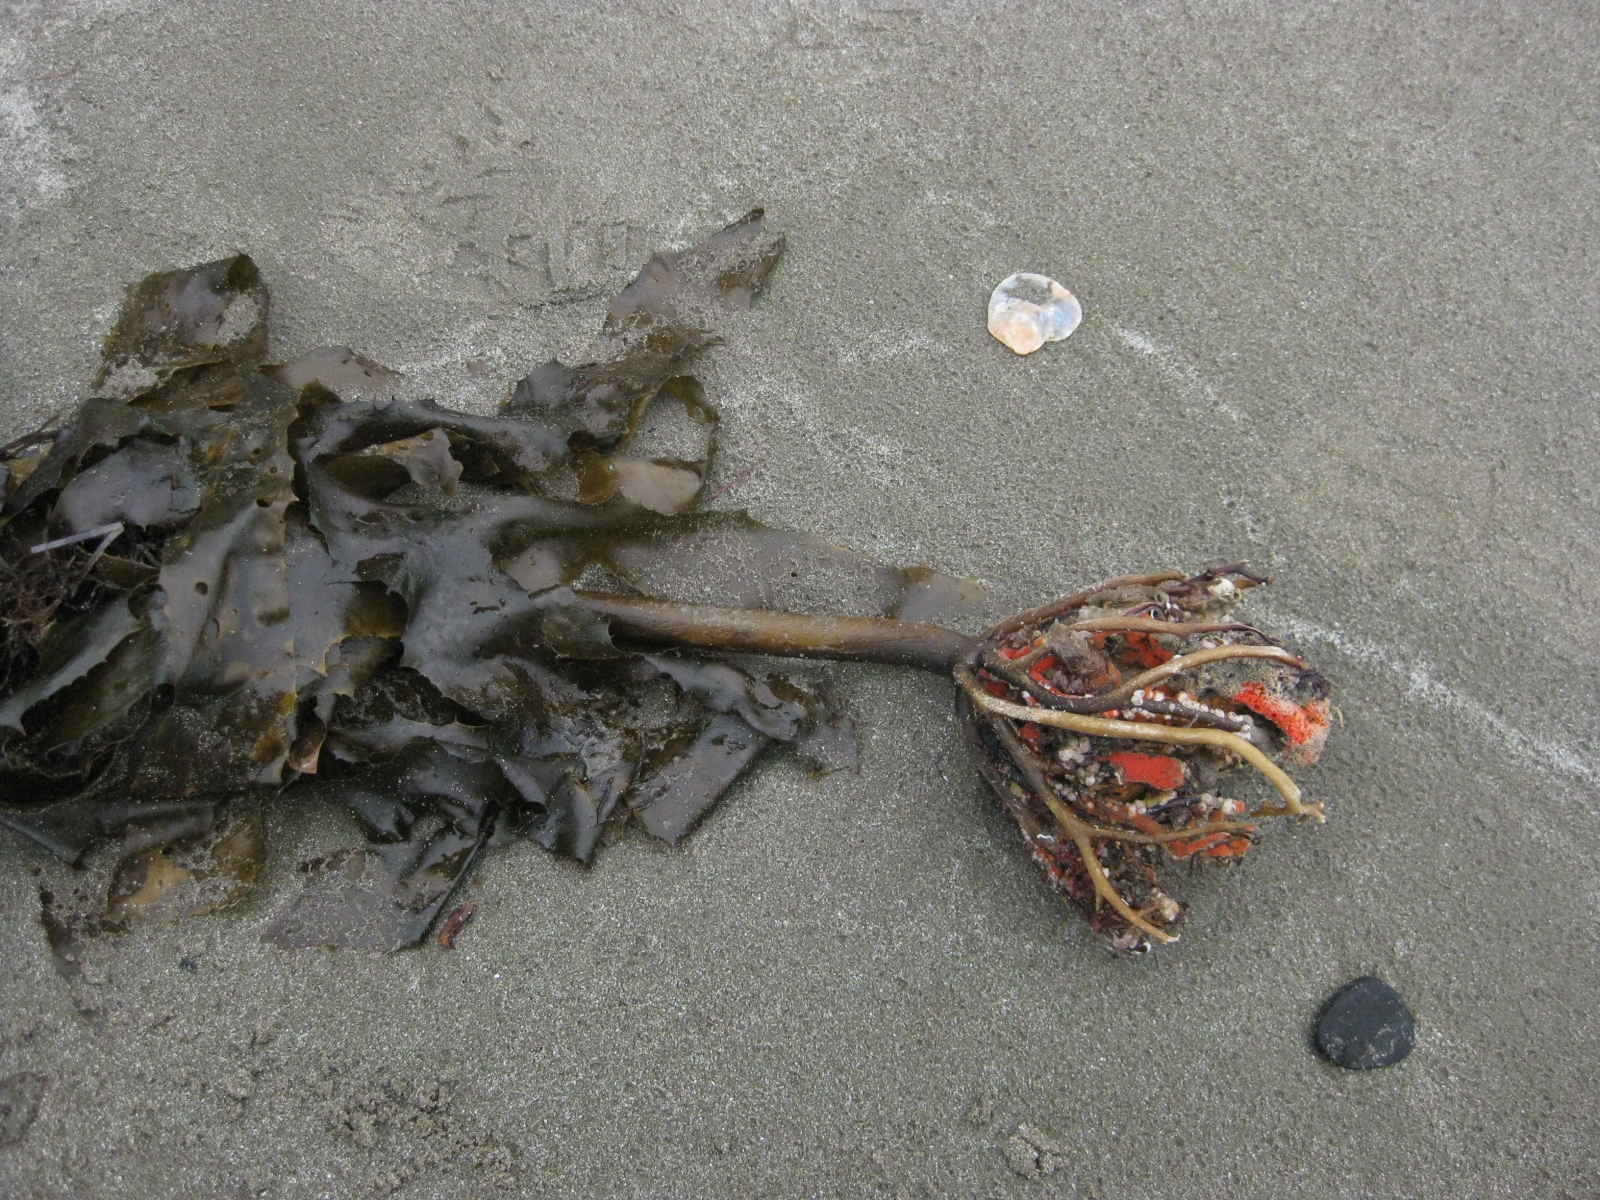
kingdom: Chromista
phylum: Ochrophyta
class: Phaeophyceae
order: Laminariales
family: Lessoniaceae
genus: Ecklonia
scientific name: Ecklonia radiata
